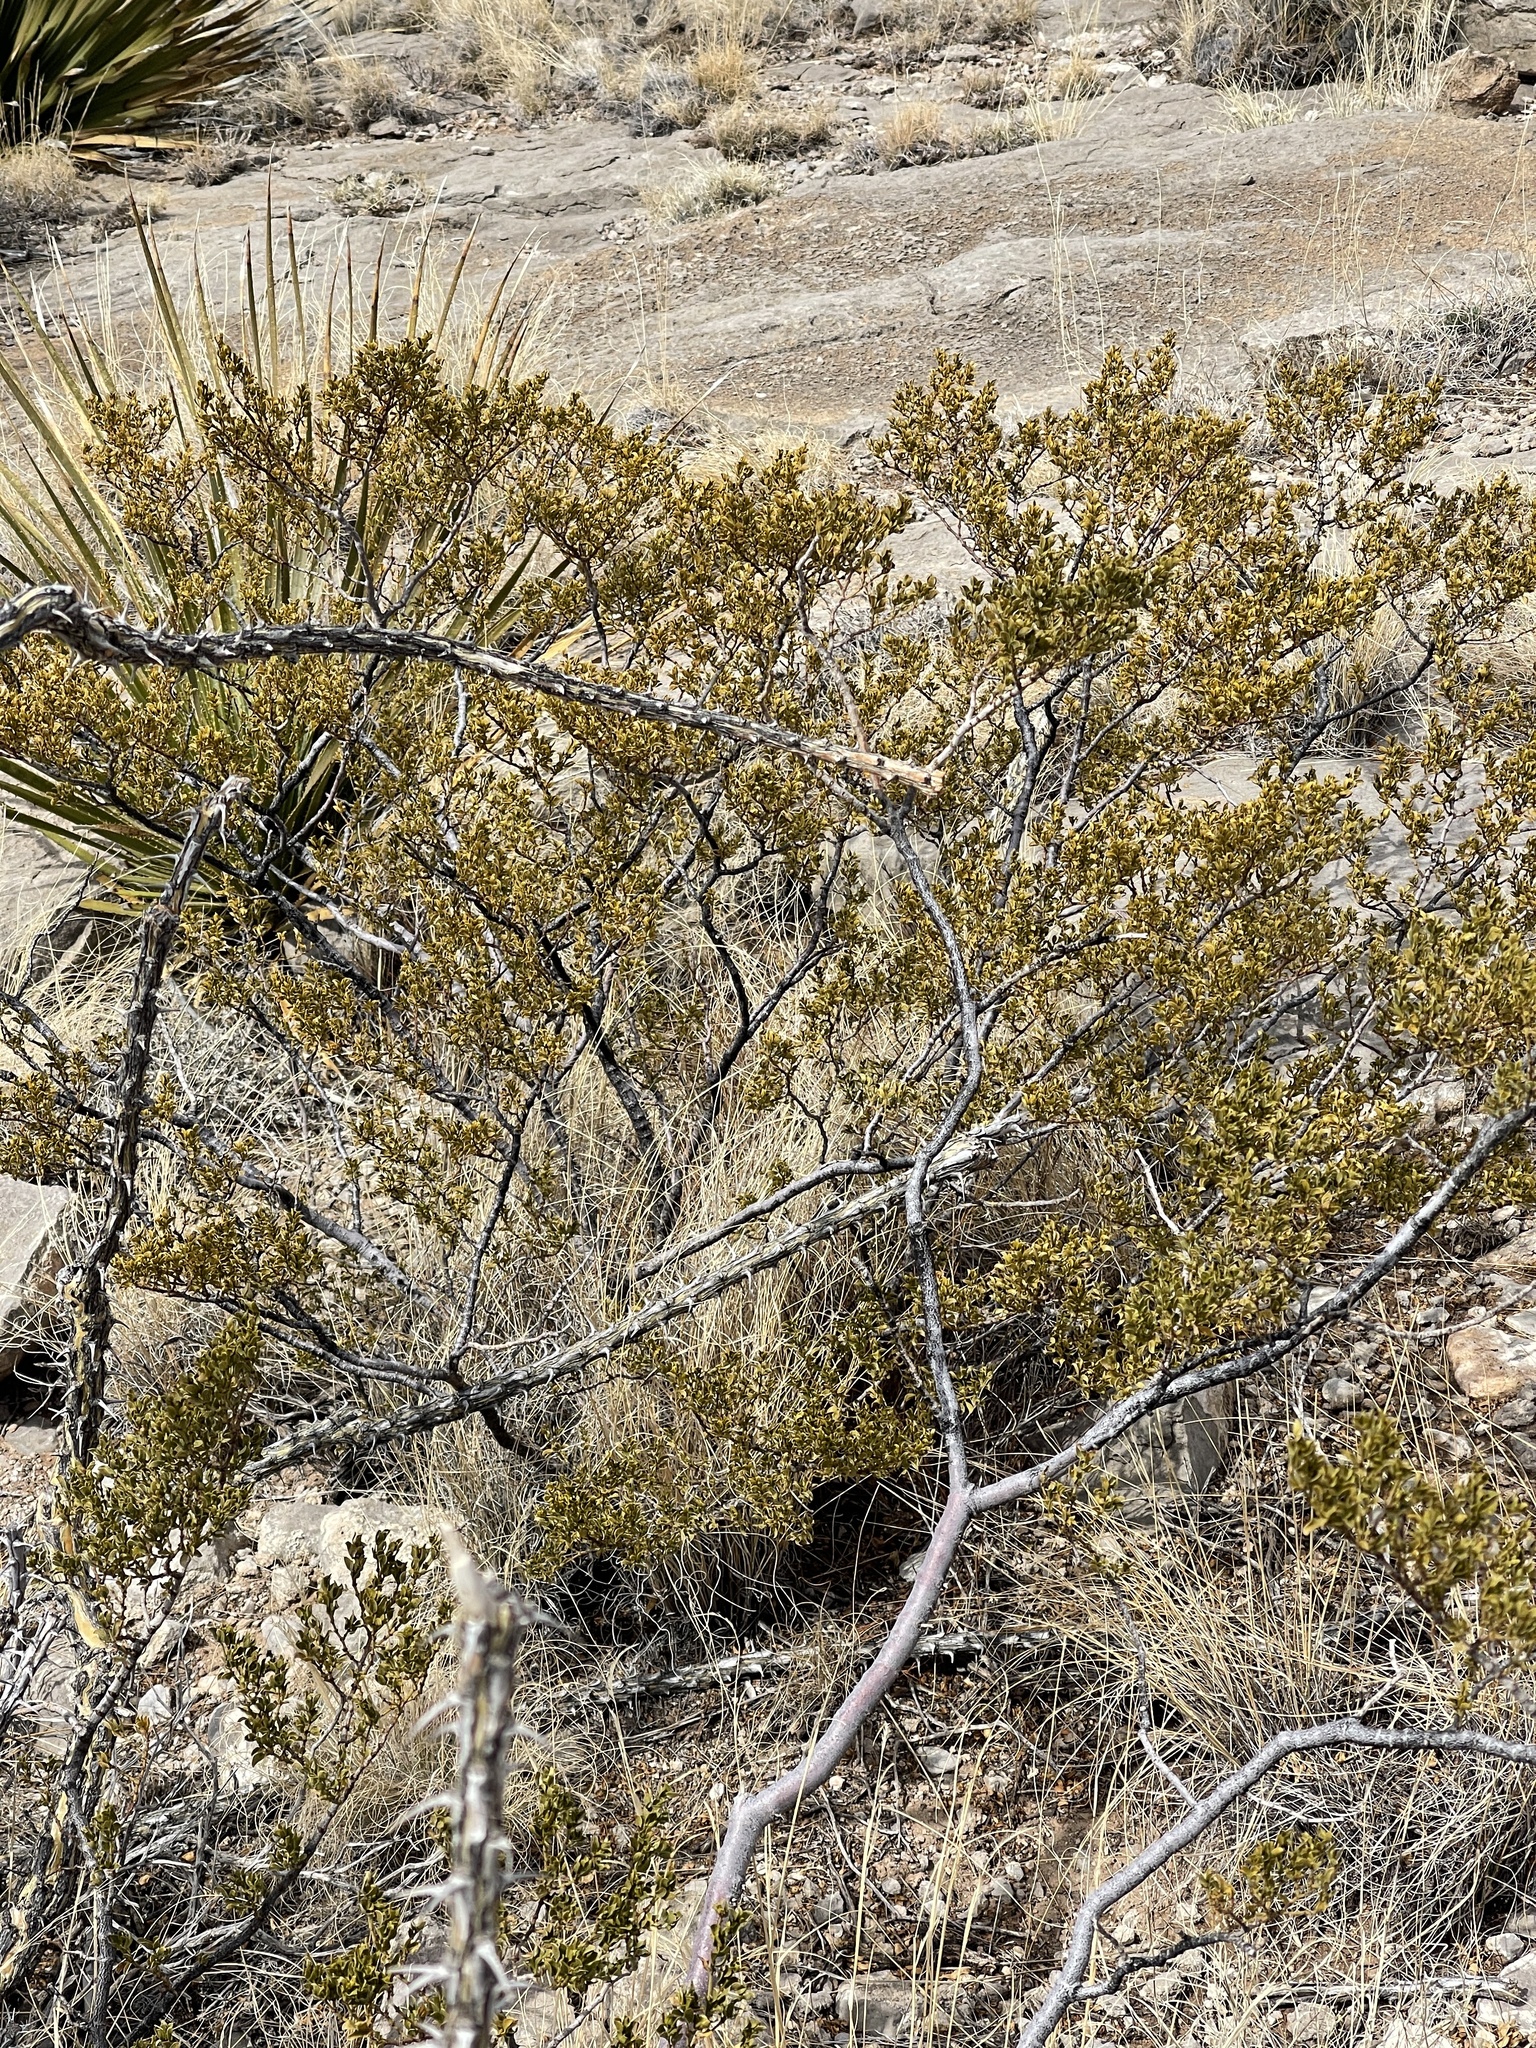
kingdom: Plantae
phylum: Tracheophyta
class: Magnoliopsida
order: Zygophyllales
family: Zygophyllaceae
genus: Larrea
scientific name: Larrea tridentata
